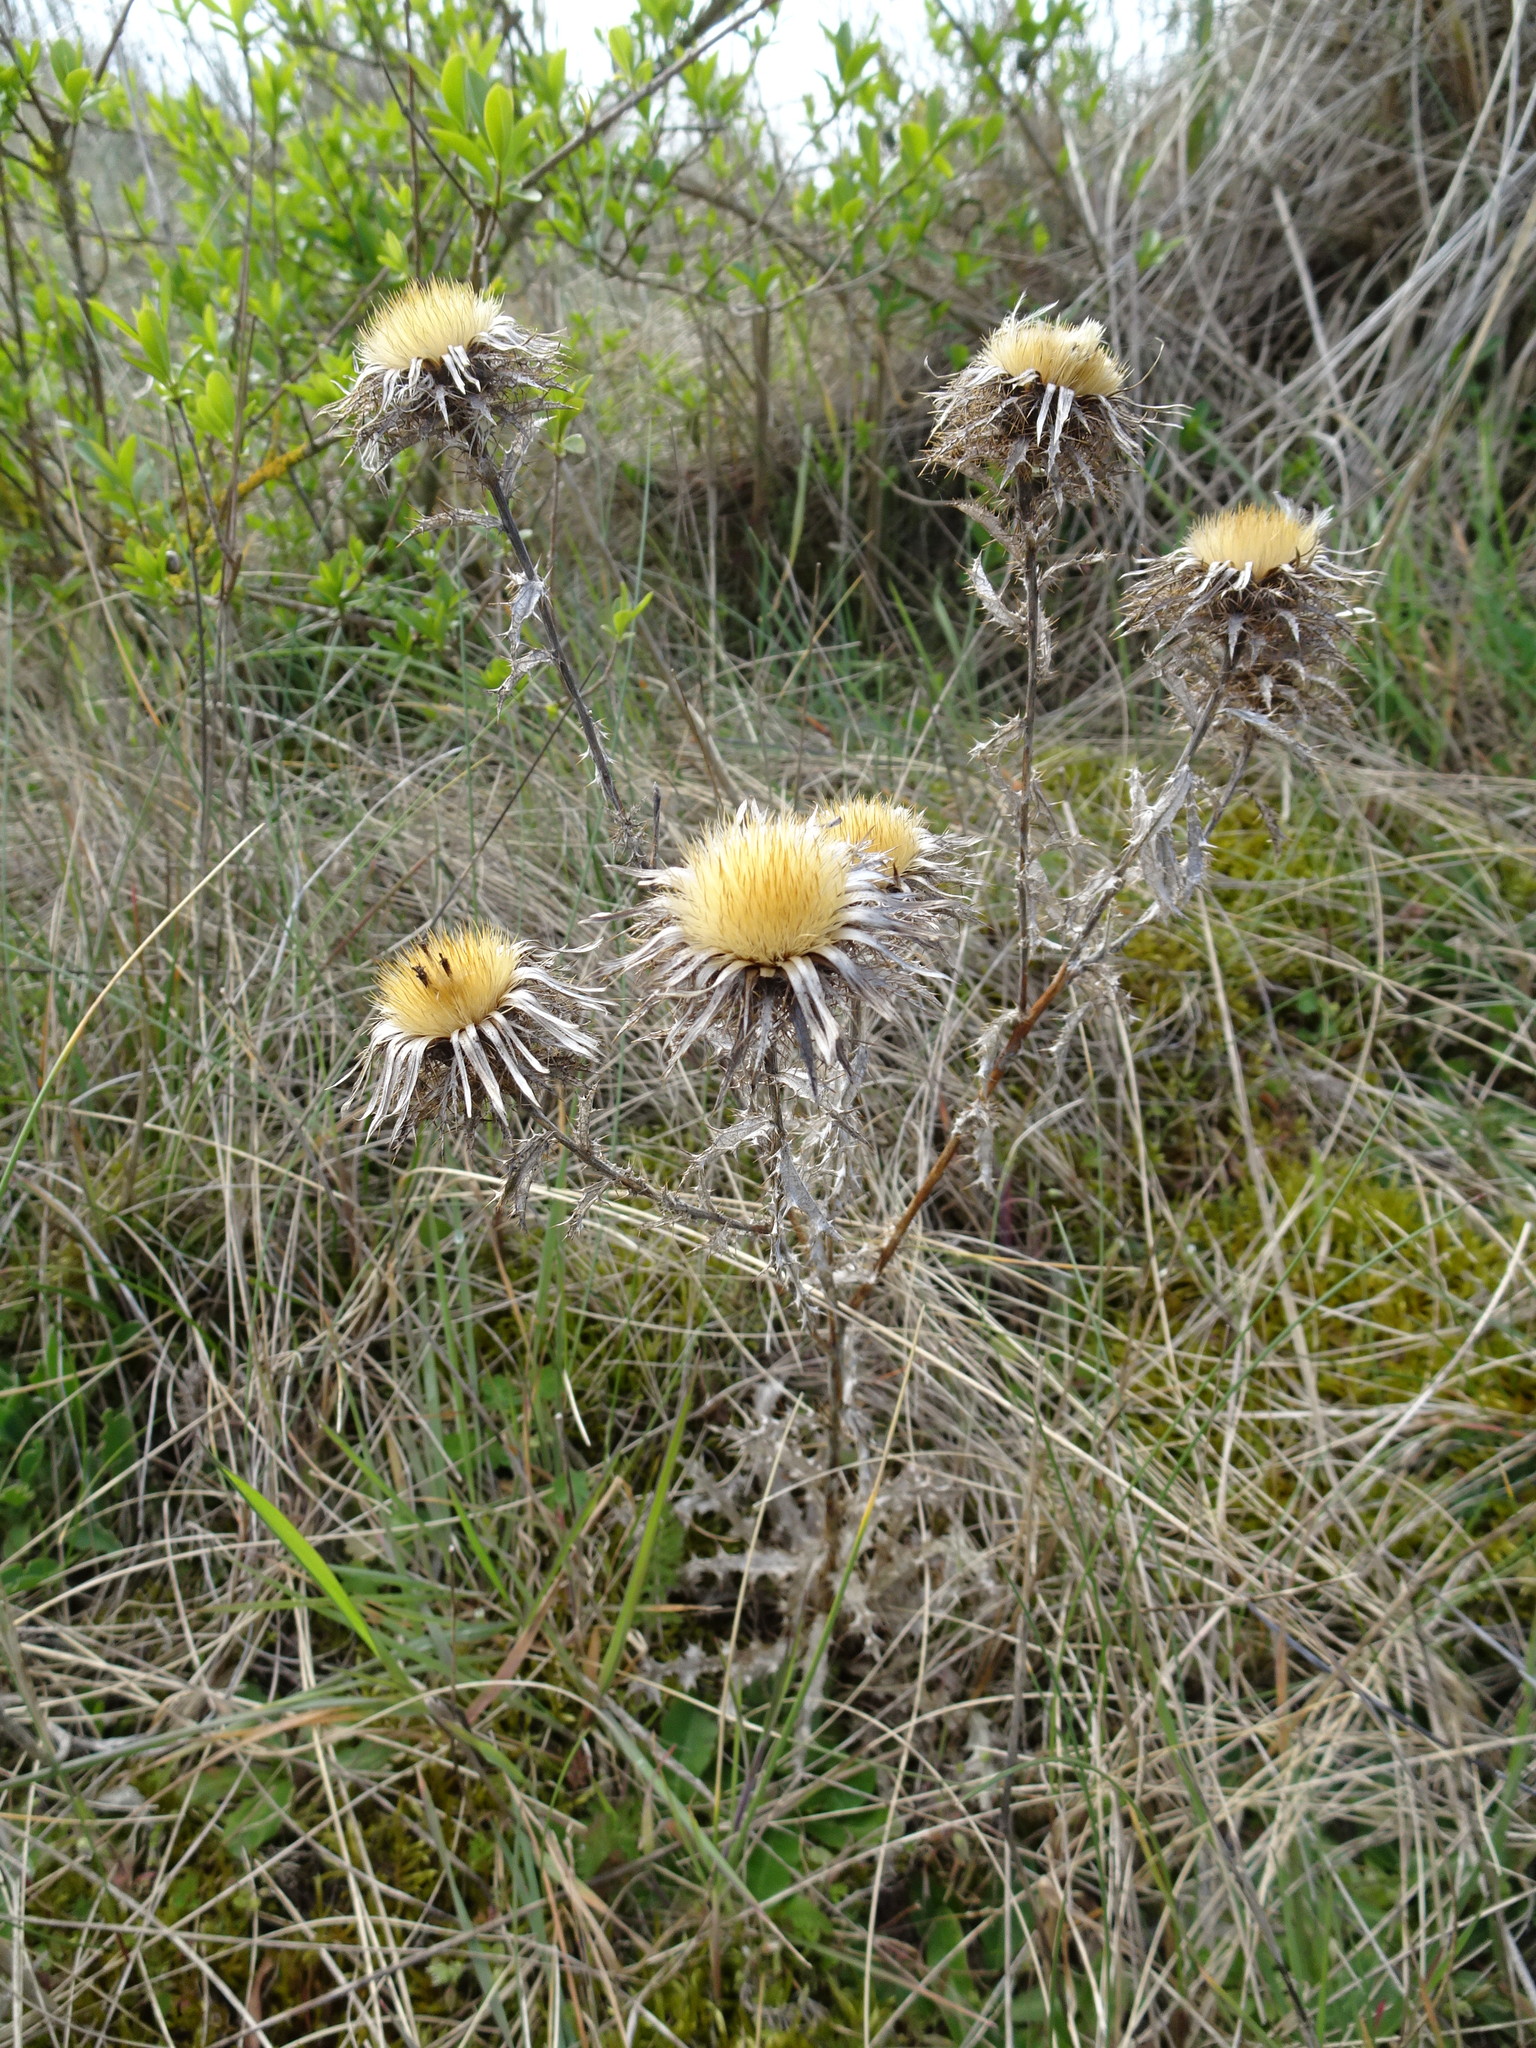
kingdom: Plantae
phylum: Tracheophyta
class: Magnoliopsida
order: Asterales
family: Asteraceae
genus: Carlina
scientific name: Carlina vulgaris
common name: Carline thistle
